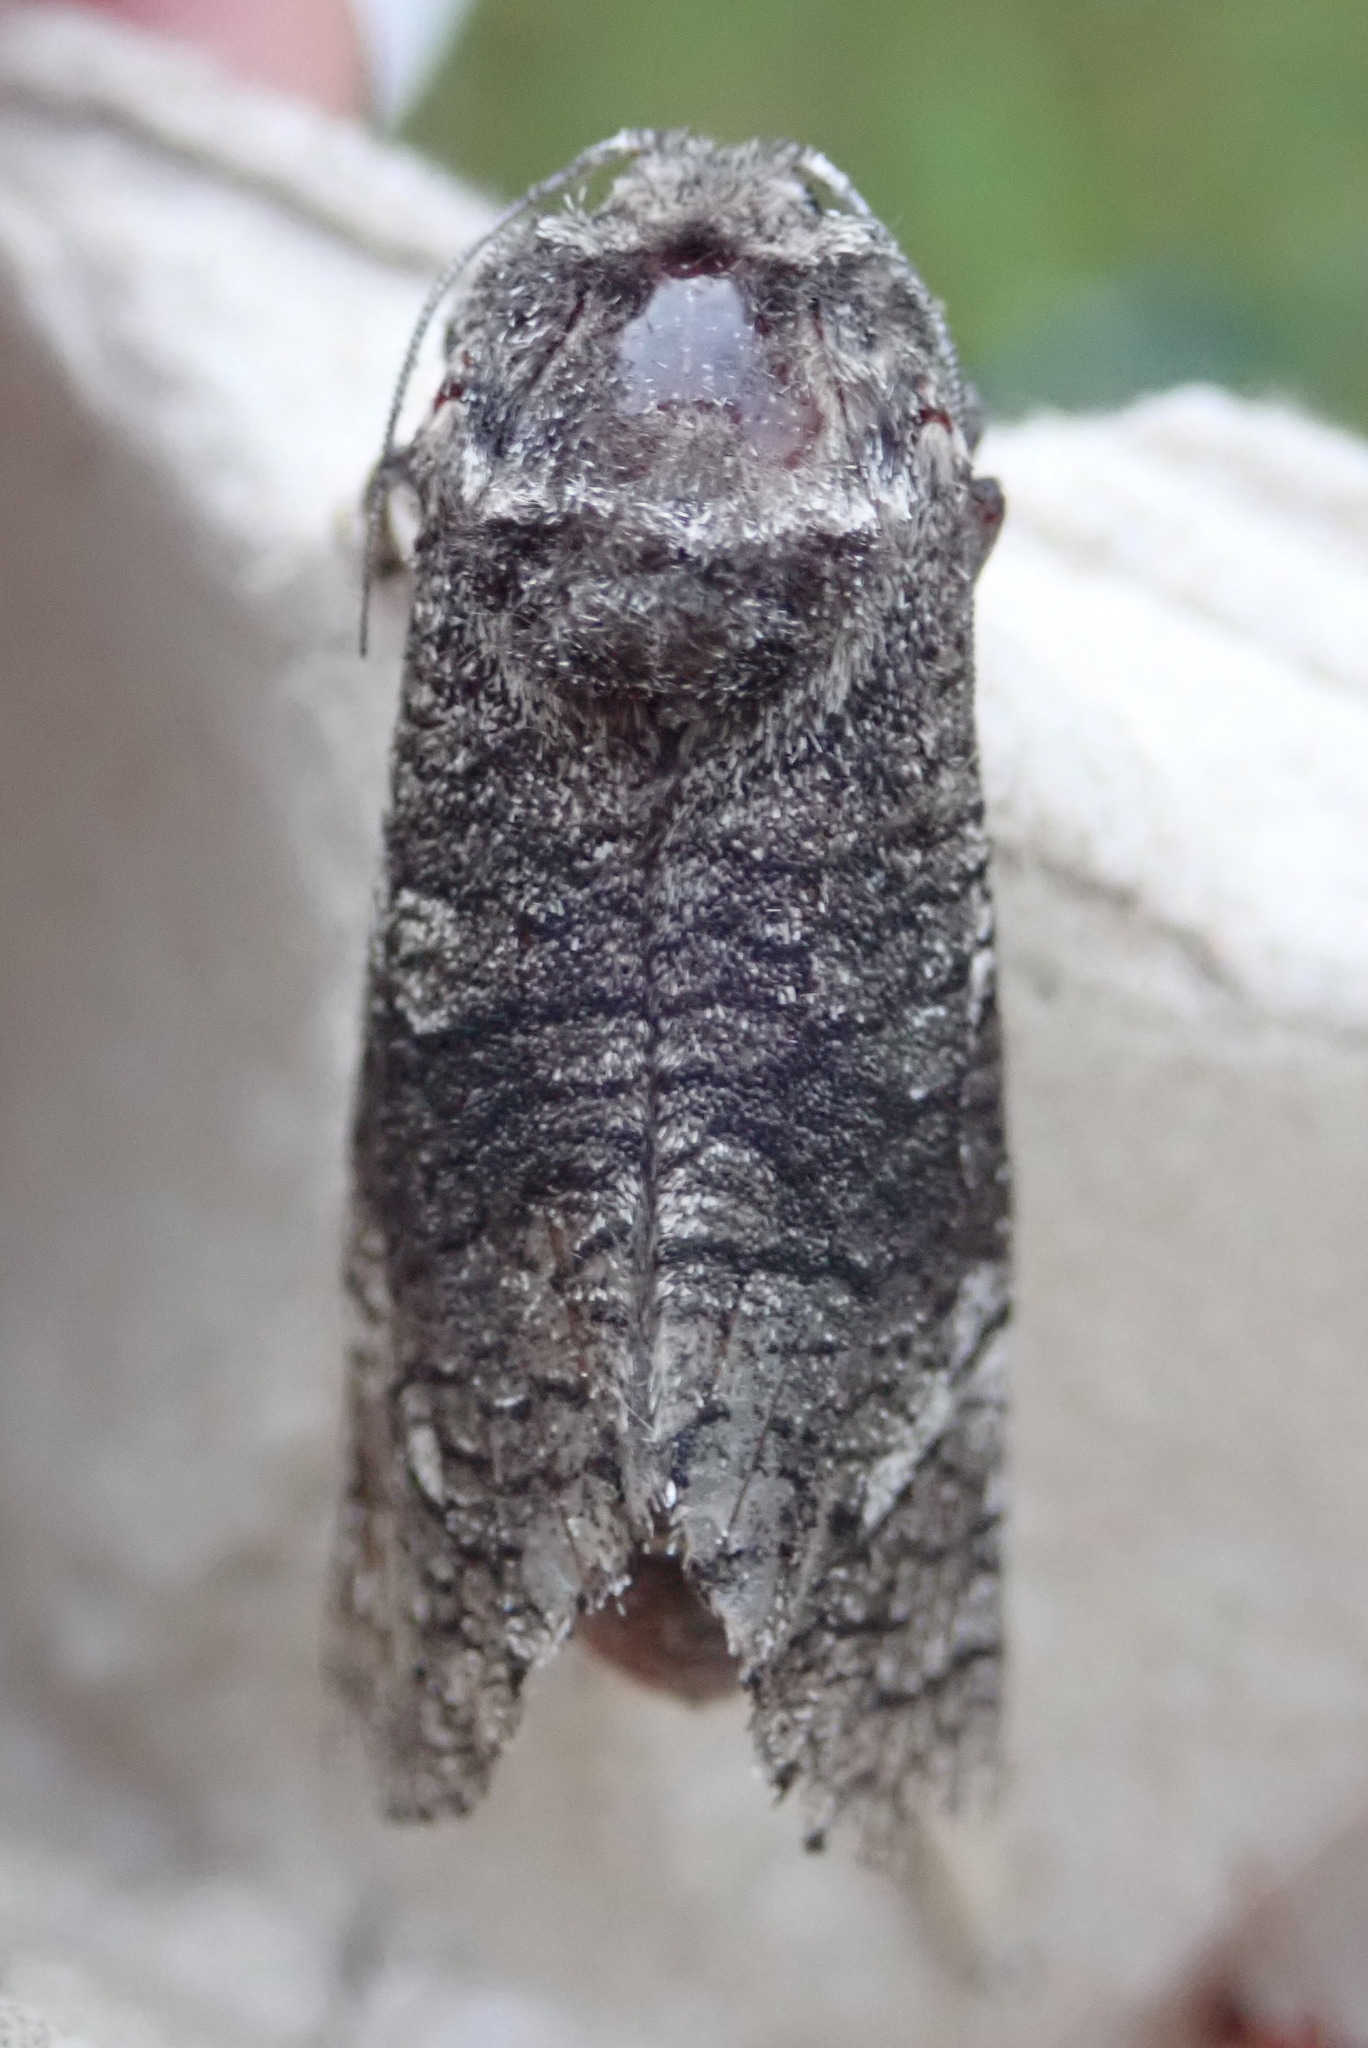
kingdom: Animalia
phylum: Arthropoda
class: Insecta
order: Lepidoptera
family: Cossidae
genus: Acossus
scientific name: Acossus centerensis
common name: Poplar carpenterworm moth
